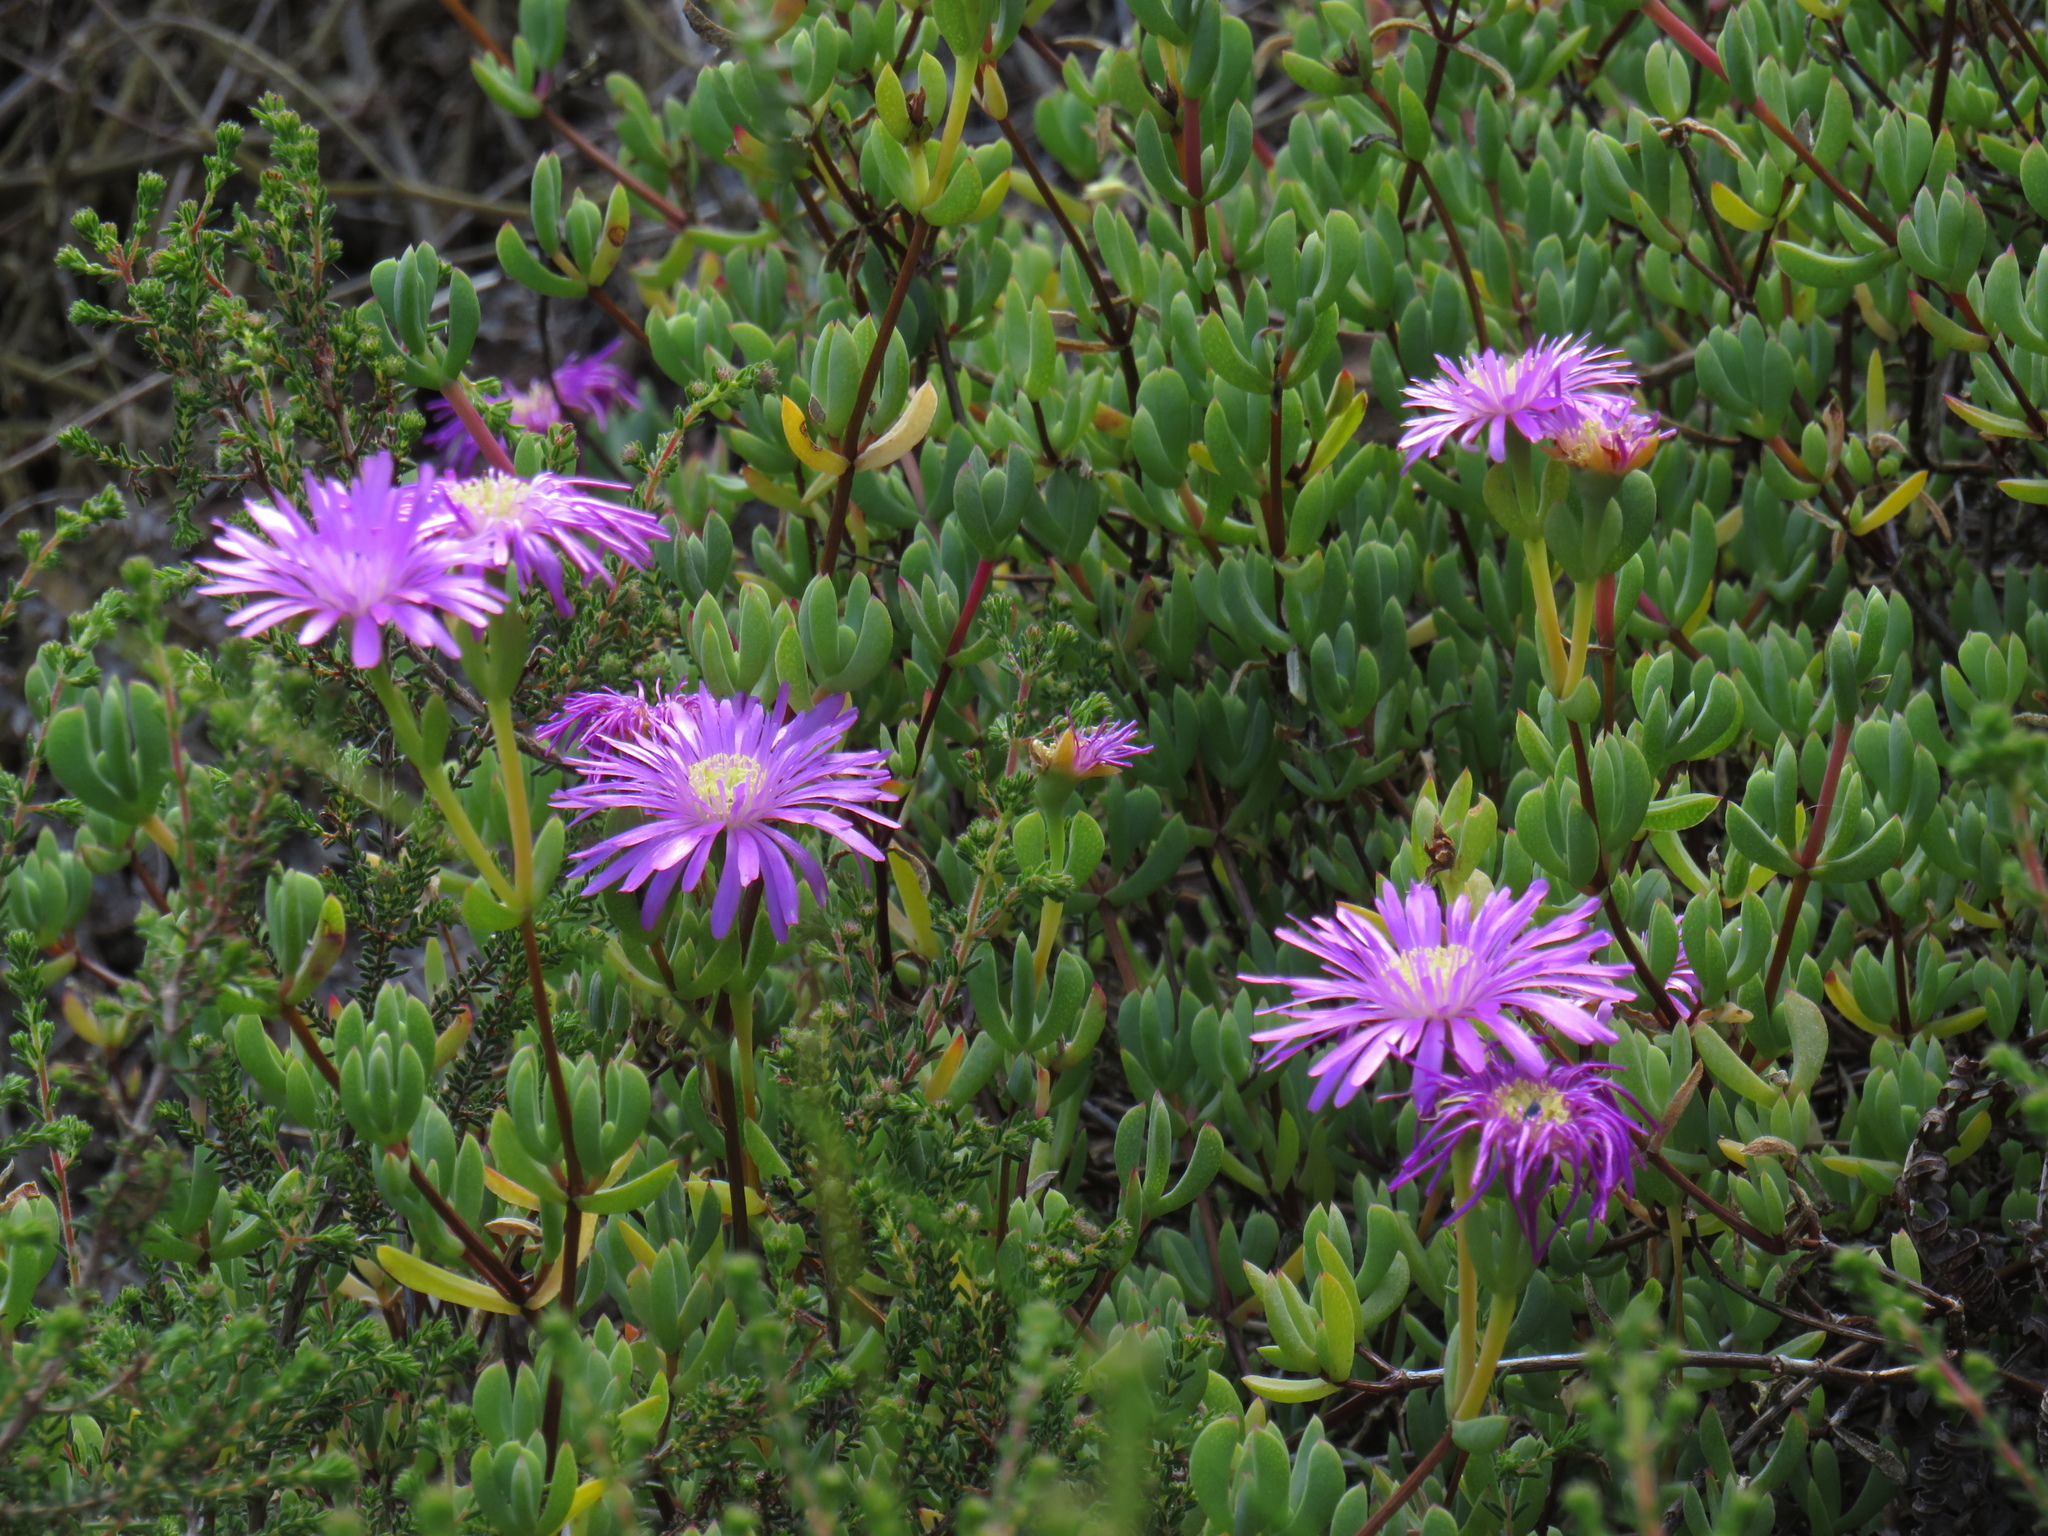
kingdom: Plantae
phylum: Tracheophyta
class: Magnoliopsida
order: Caryophyllales
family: Aizoaceae
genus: Oscularia
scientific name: Oscularia falciformis
